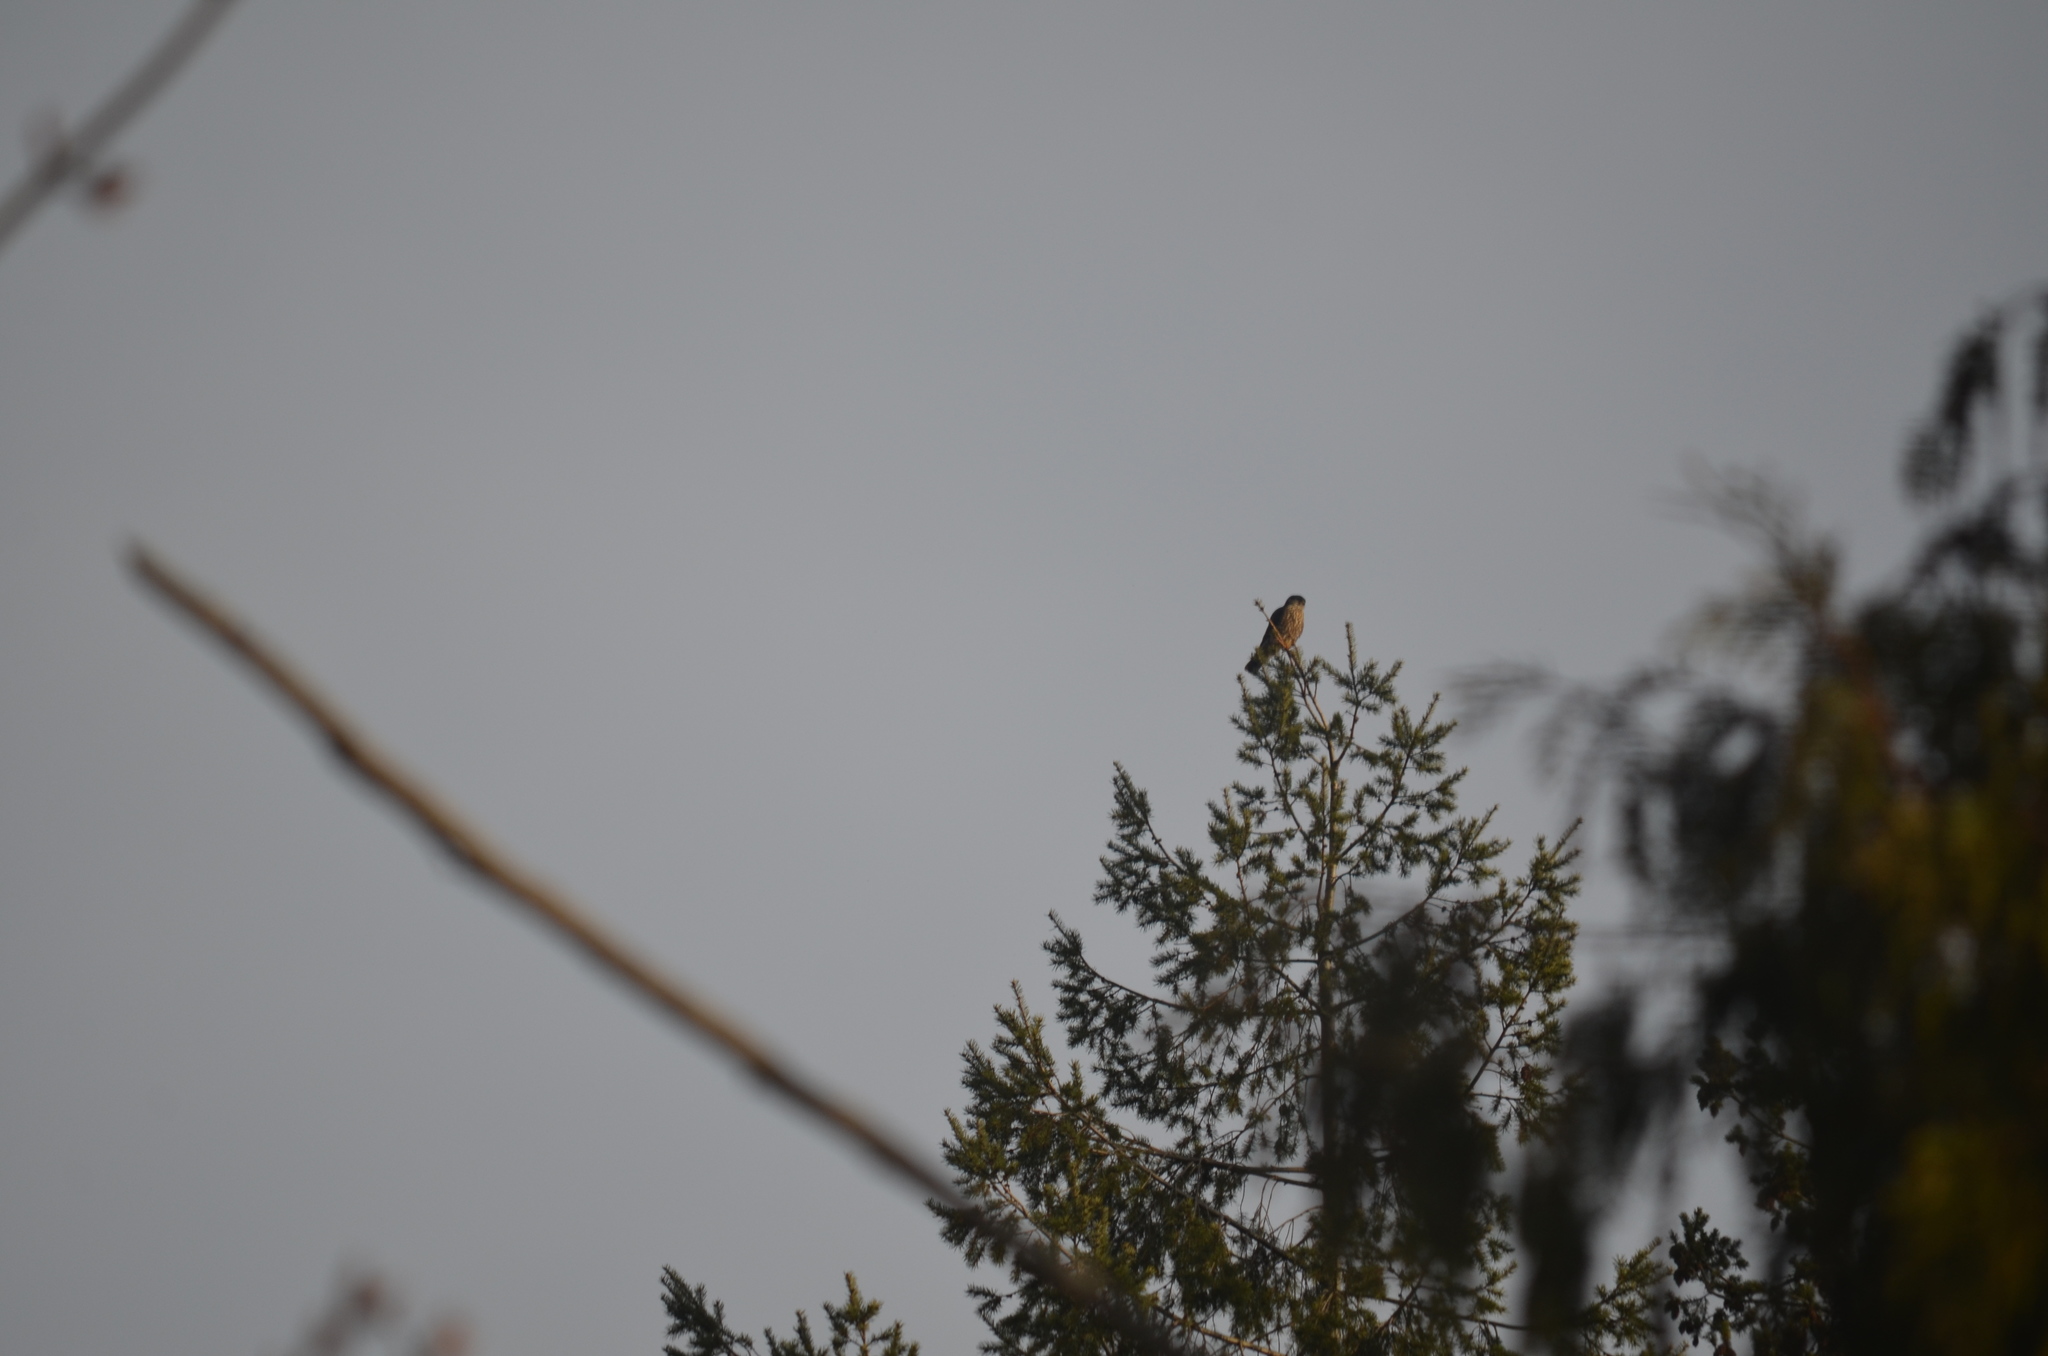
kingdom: Animalia
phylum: Chordata
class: Aves
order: Falconiformes
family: Falconidae
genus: Falco
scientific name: Falco columbarius
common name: Merlin
